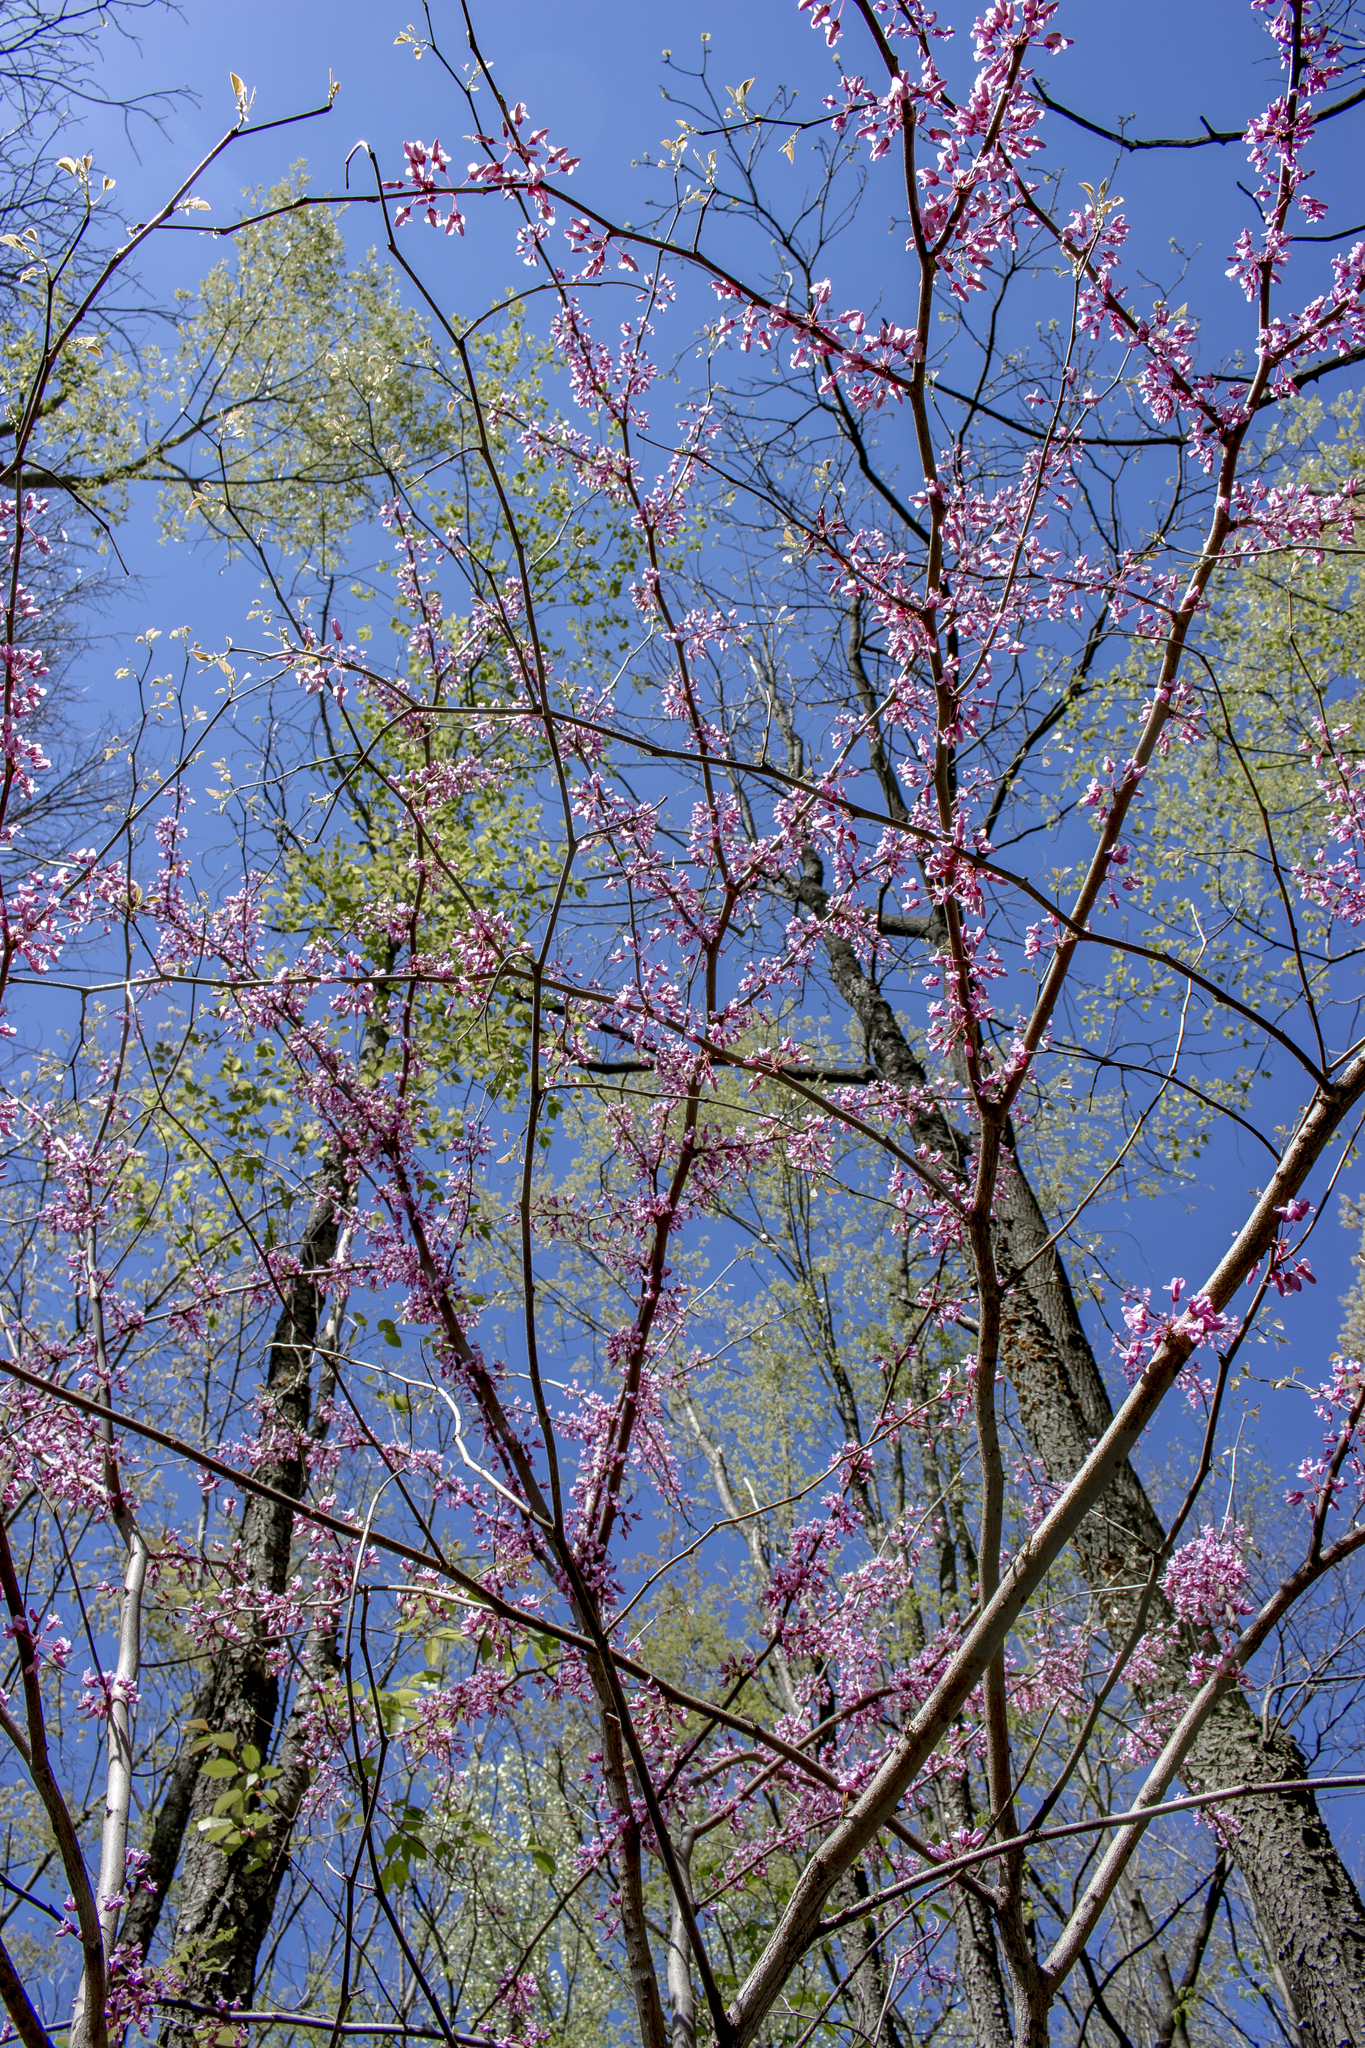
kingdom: Plantae
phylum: Tracheophyta
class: Magnoliopsida
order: Fabales
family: Fabaceae
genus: Cercis
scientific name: Cercis canadensis
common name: Eastern redbud
